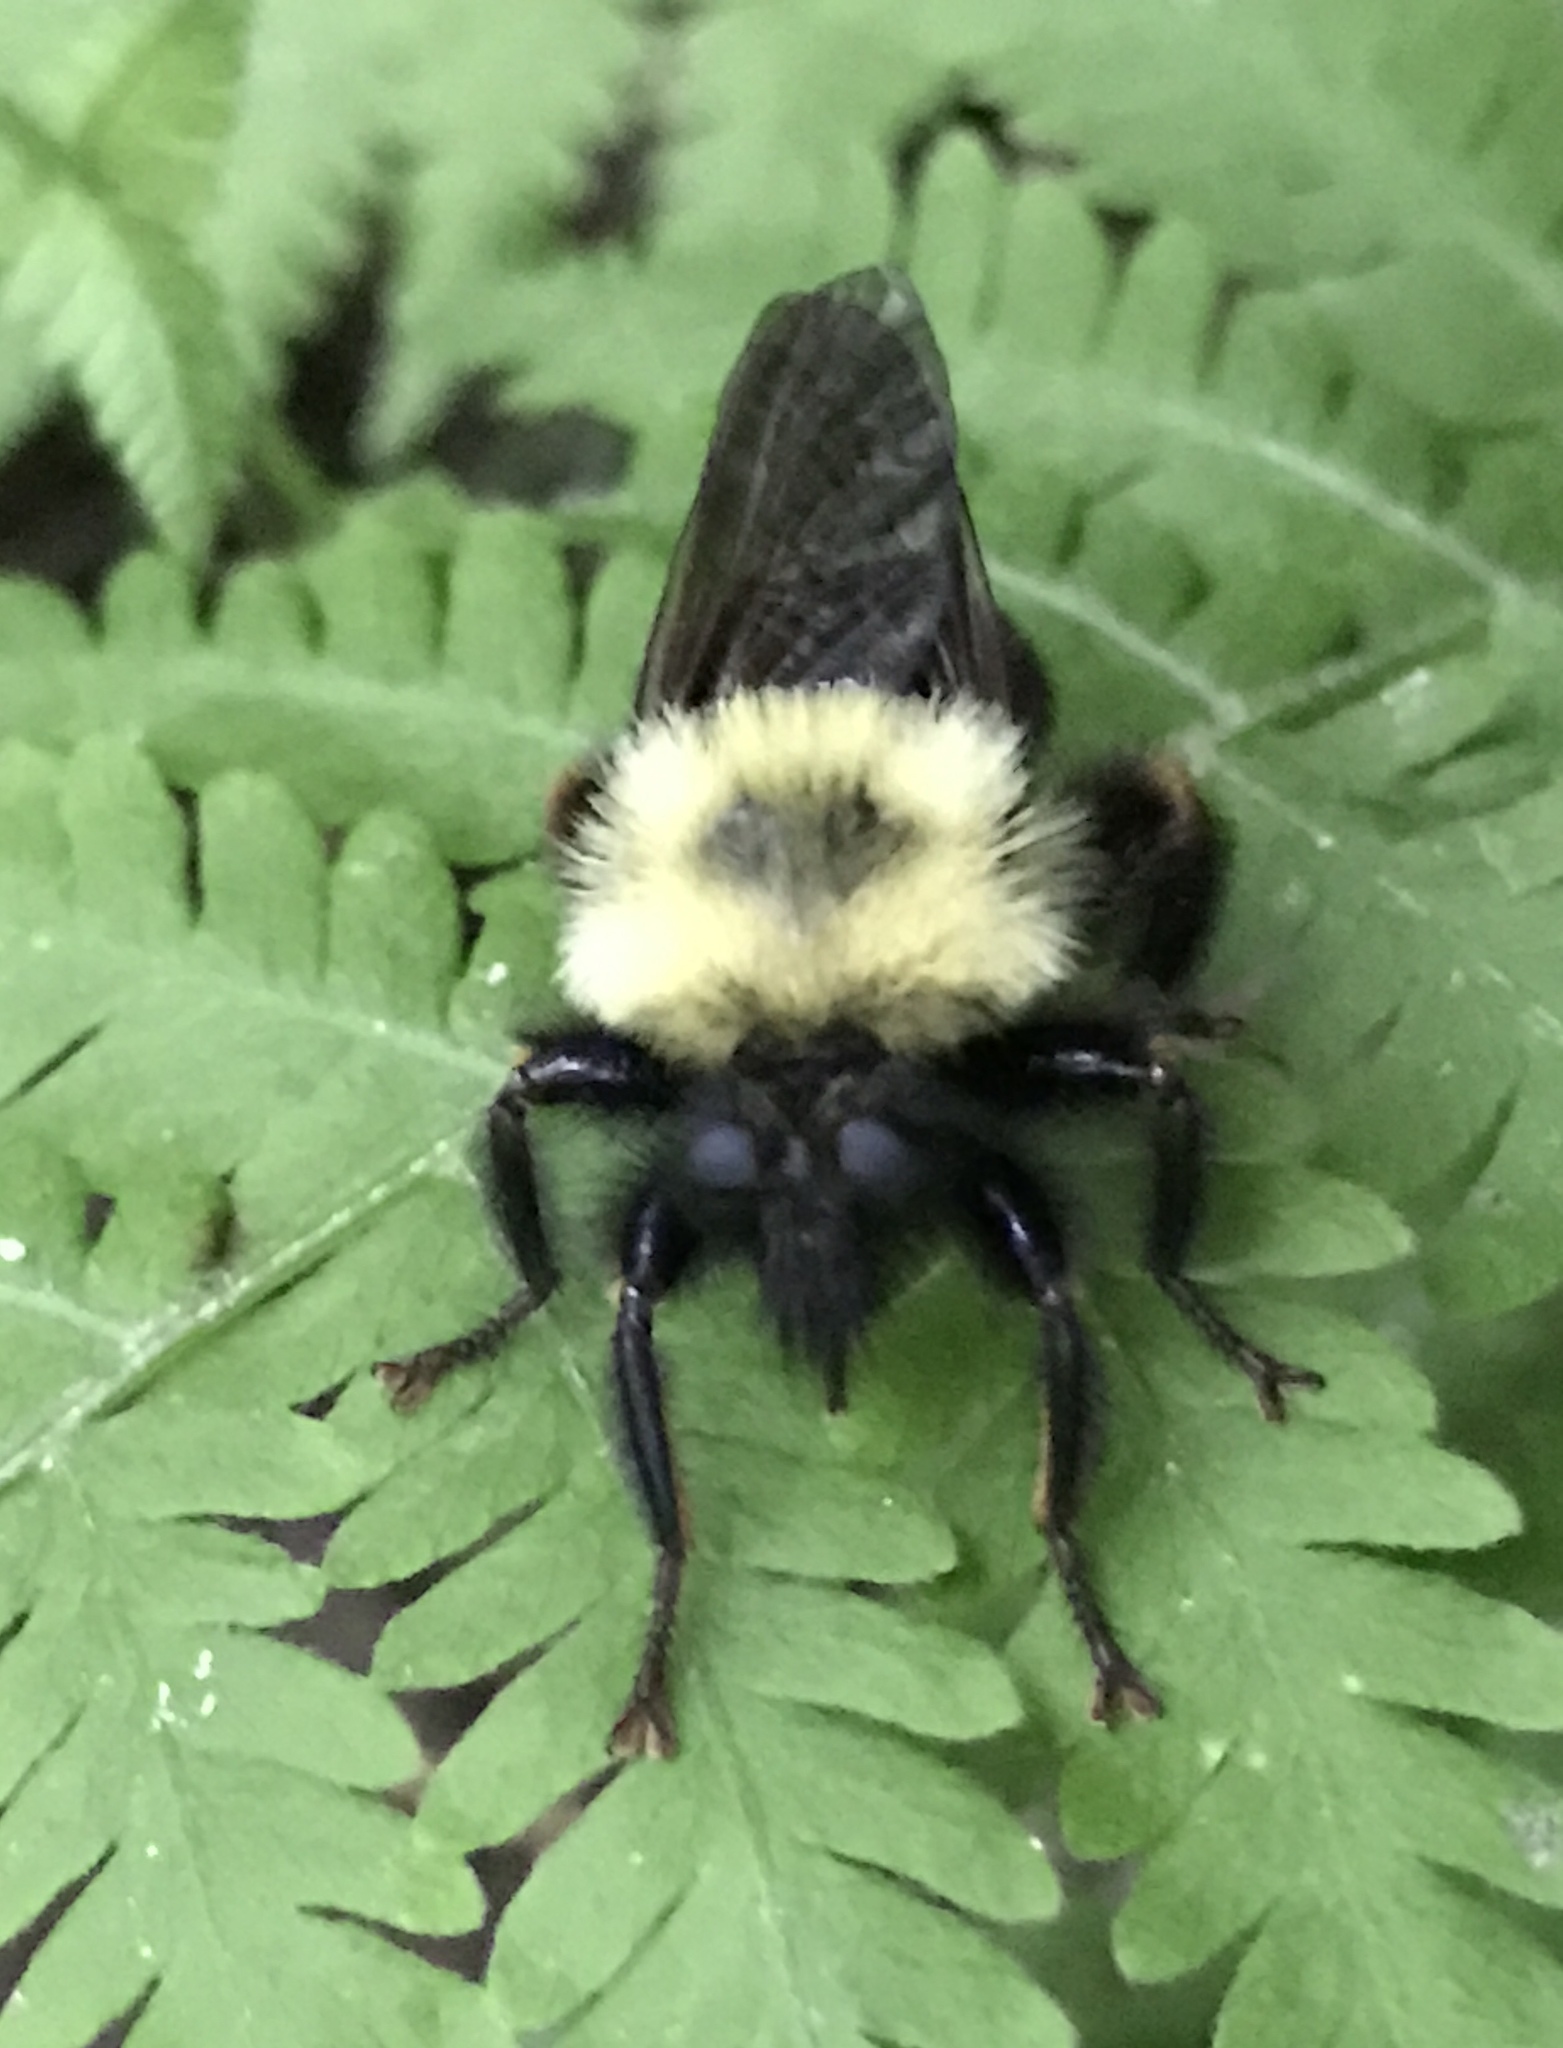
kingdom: Animalia
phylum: Arthropoda
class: Insecta
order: Diptera
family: Asilidae
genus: Laphria
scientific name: Laphria thoracica
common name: Bumble bee mimic robber fly
